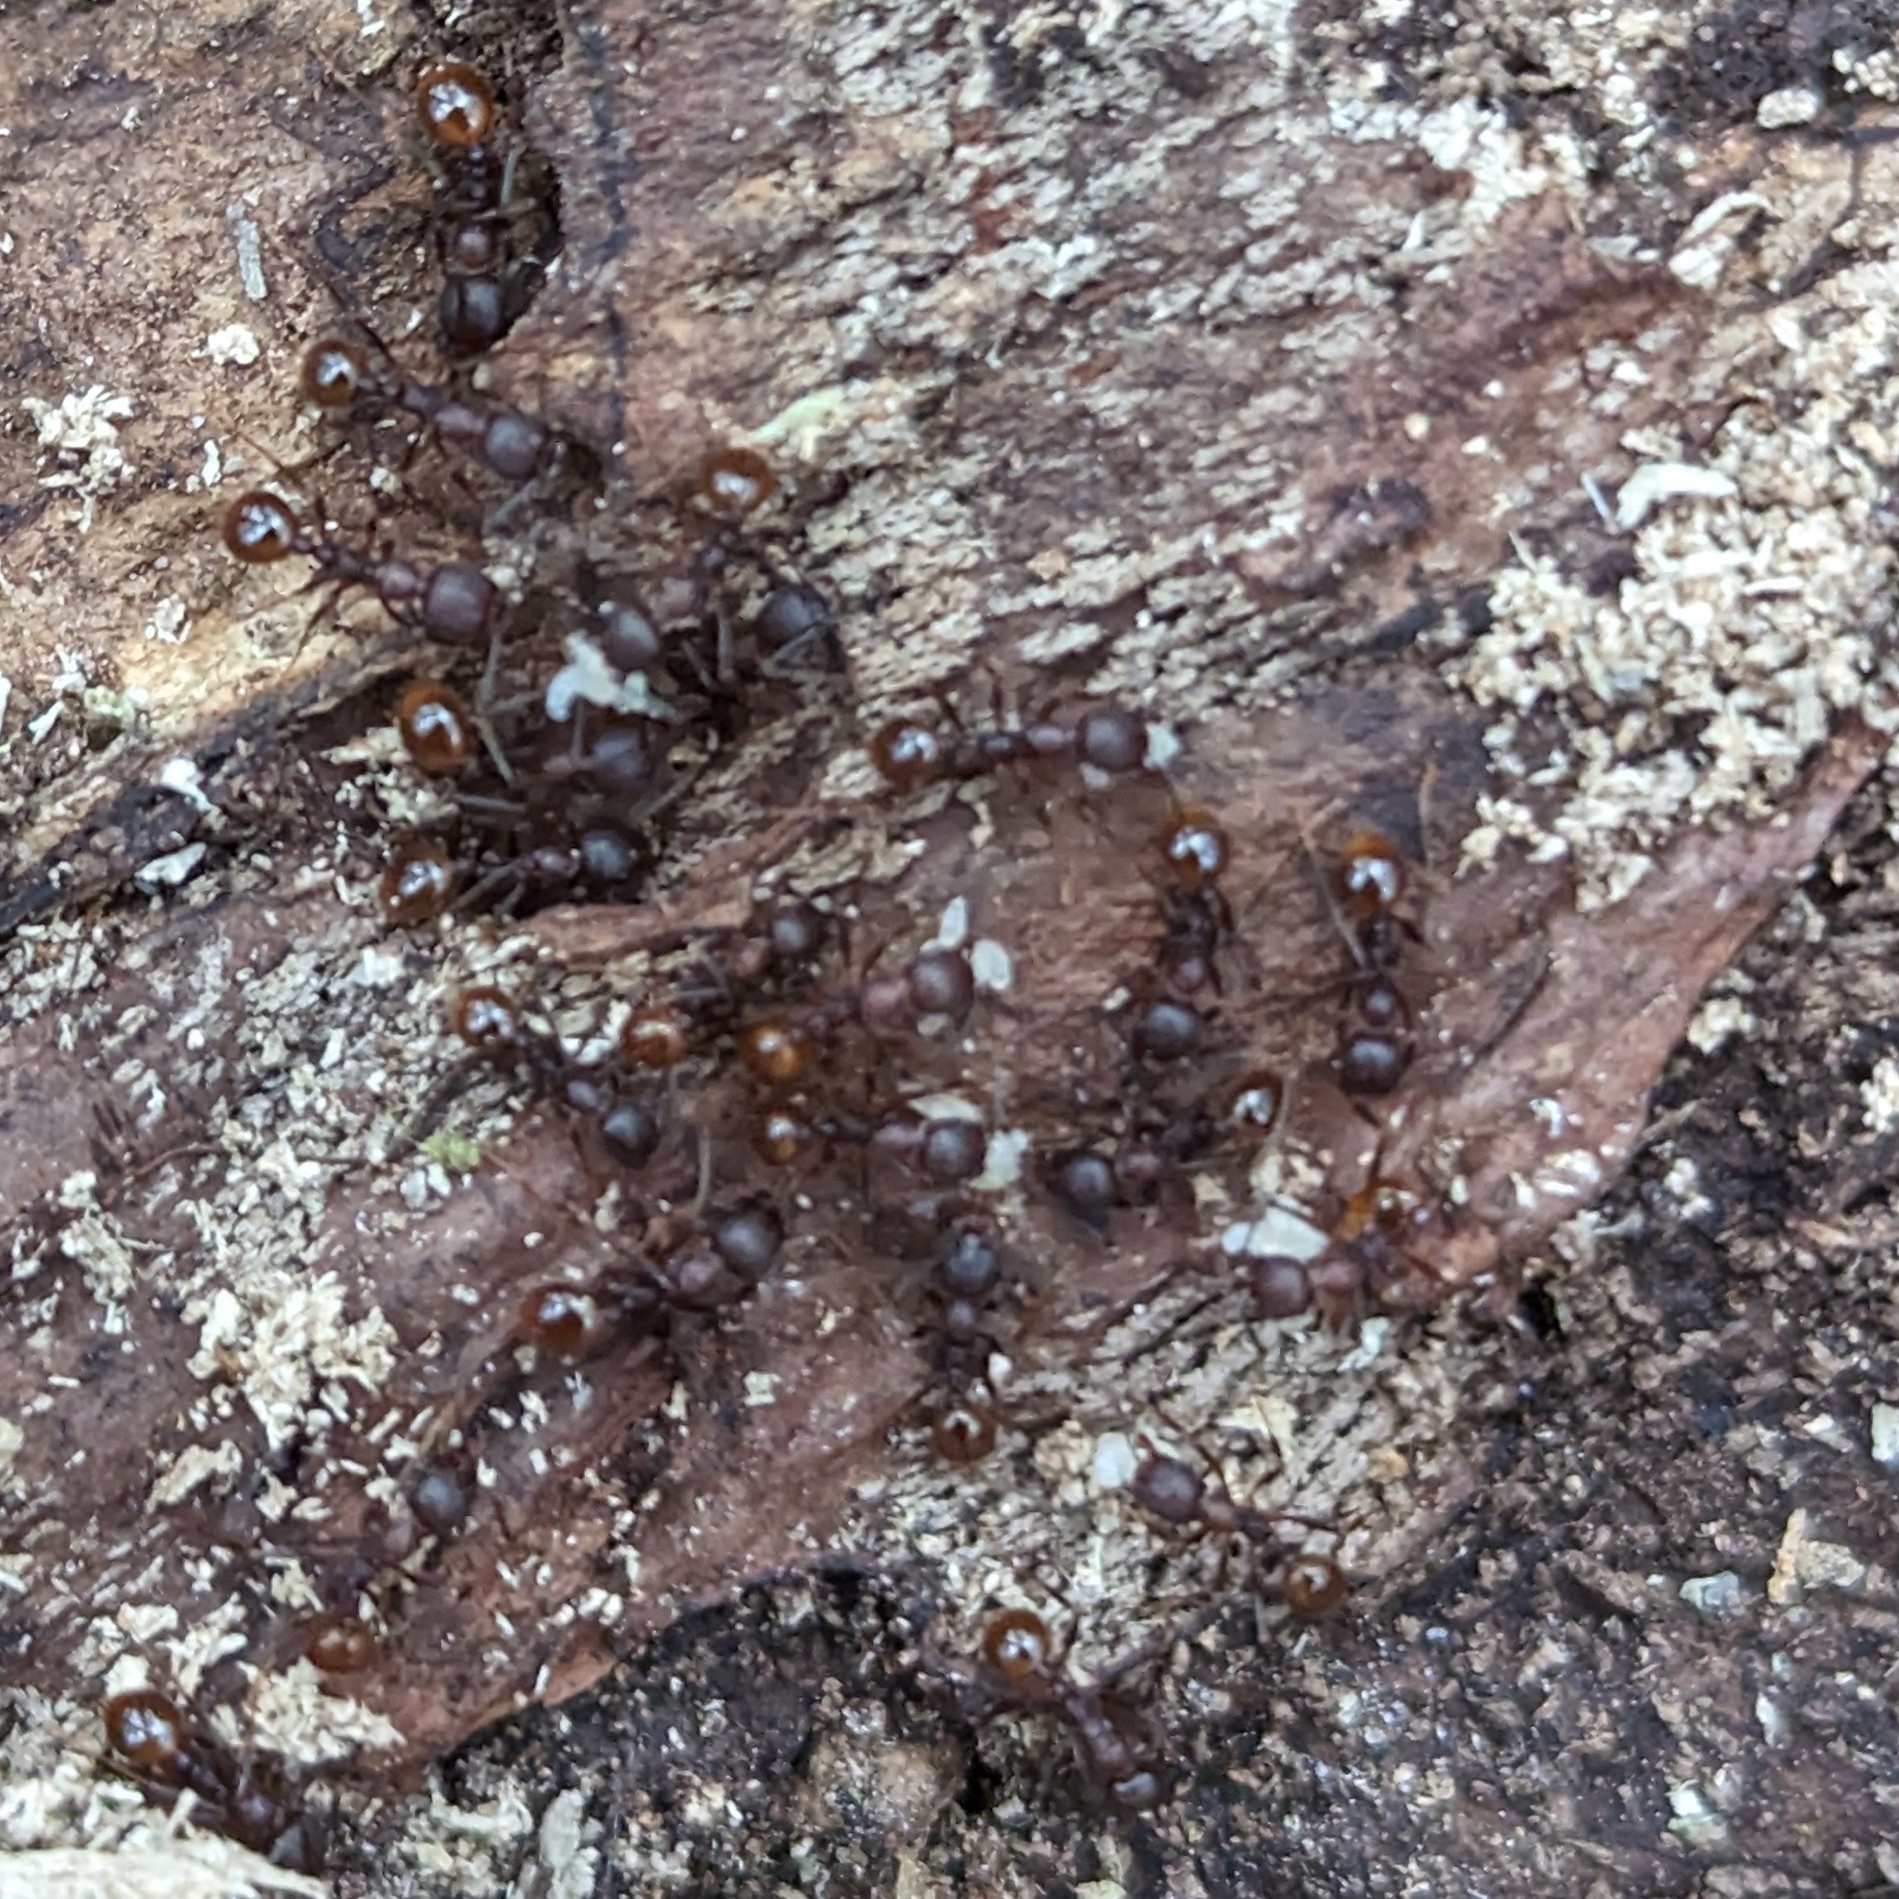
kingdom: Animalia
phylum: Arthropoda
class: Insecta
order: Hymenoptera
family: Formicidae
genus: Aphaenogaster
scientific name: Aphaenogaster fulva
